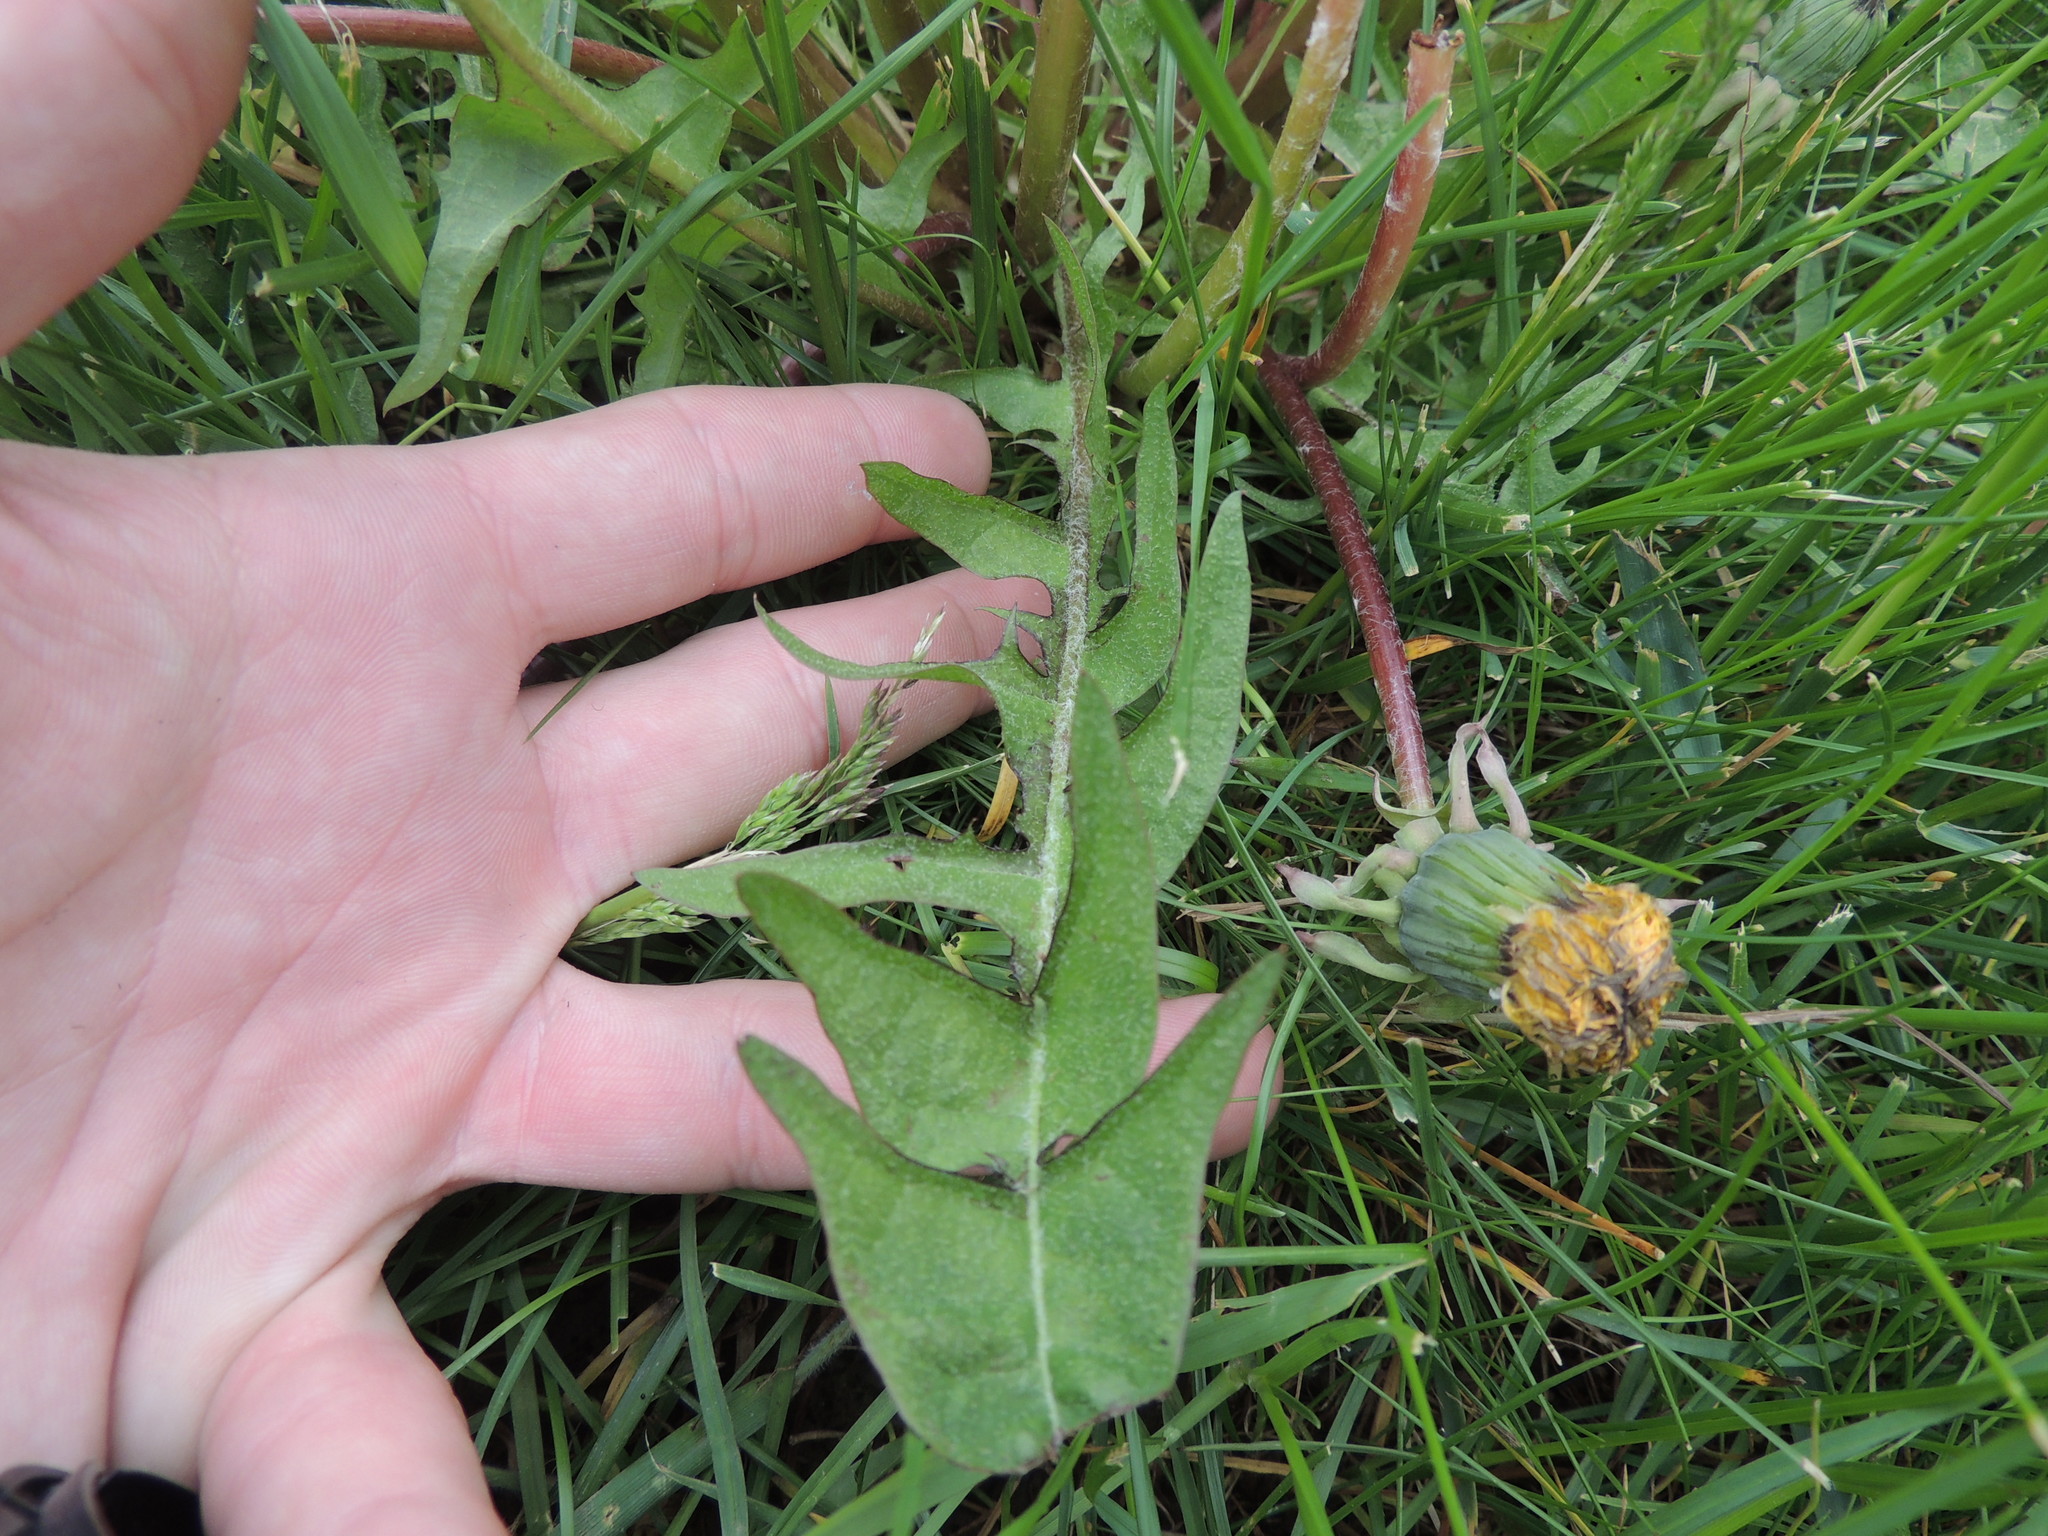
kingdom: Plantae
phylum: Tracheophyta
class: Magnoliopsida
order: Asterales
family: Asteraceae
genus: Taraxacum
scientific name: Taraxacum officinale
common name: Common dandelion
